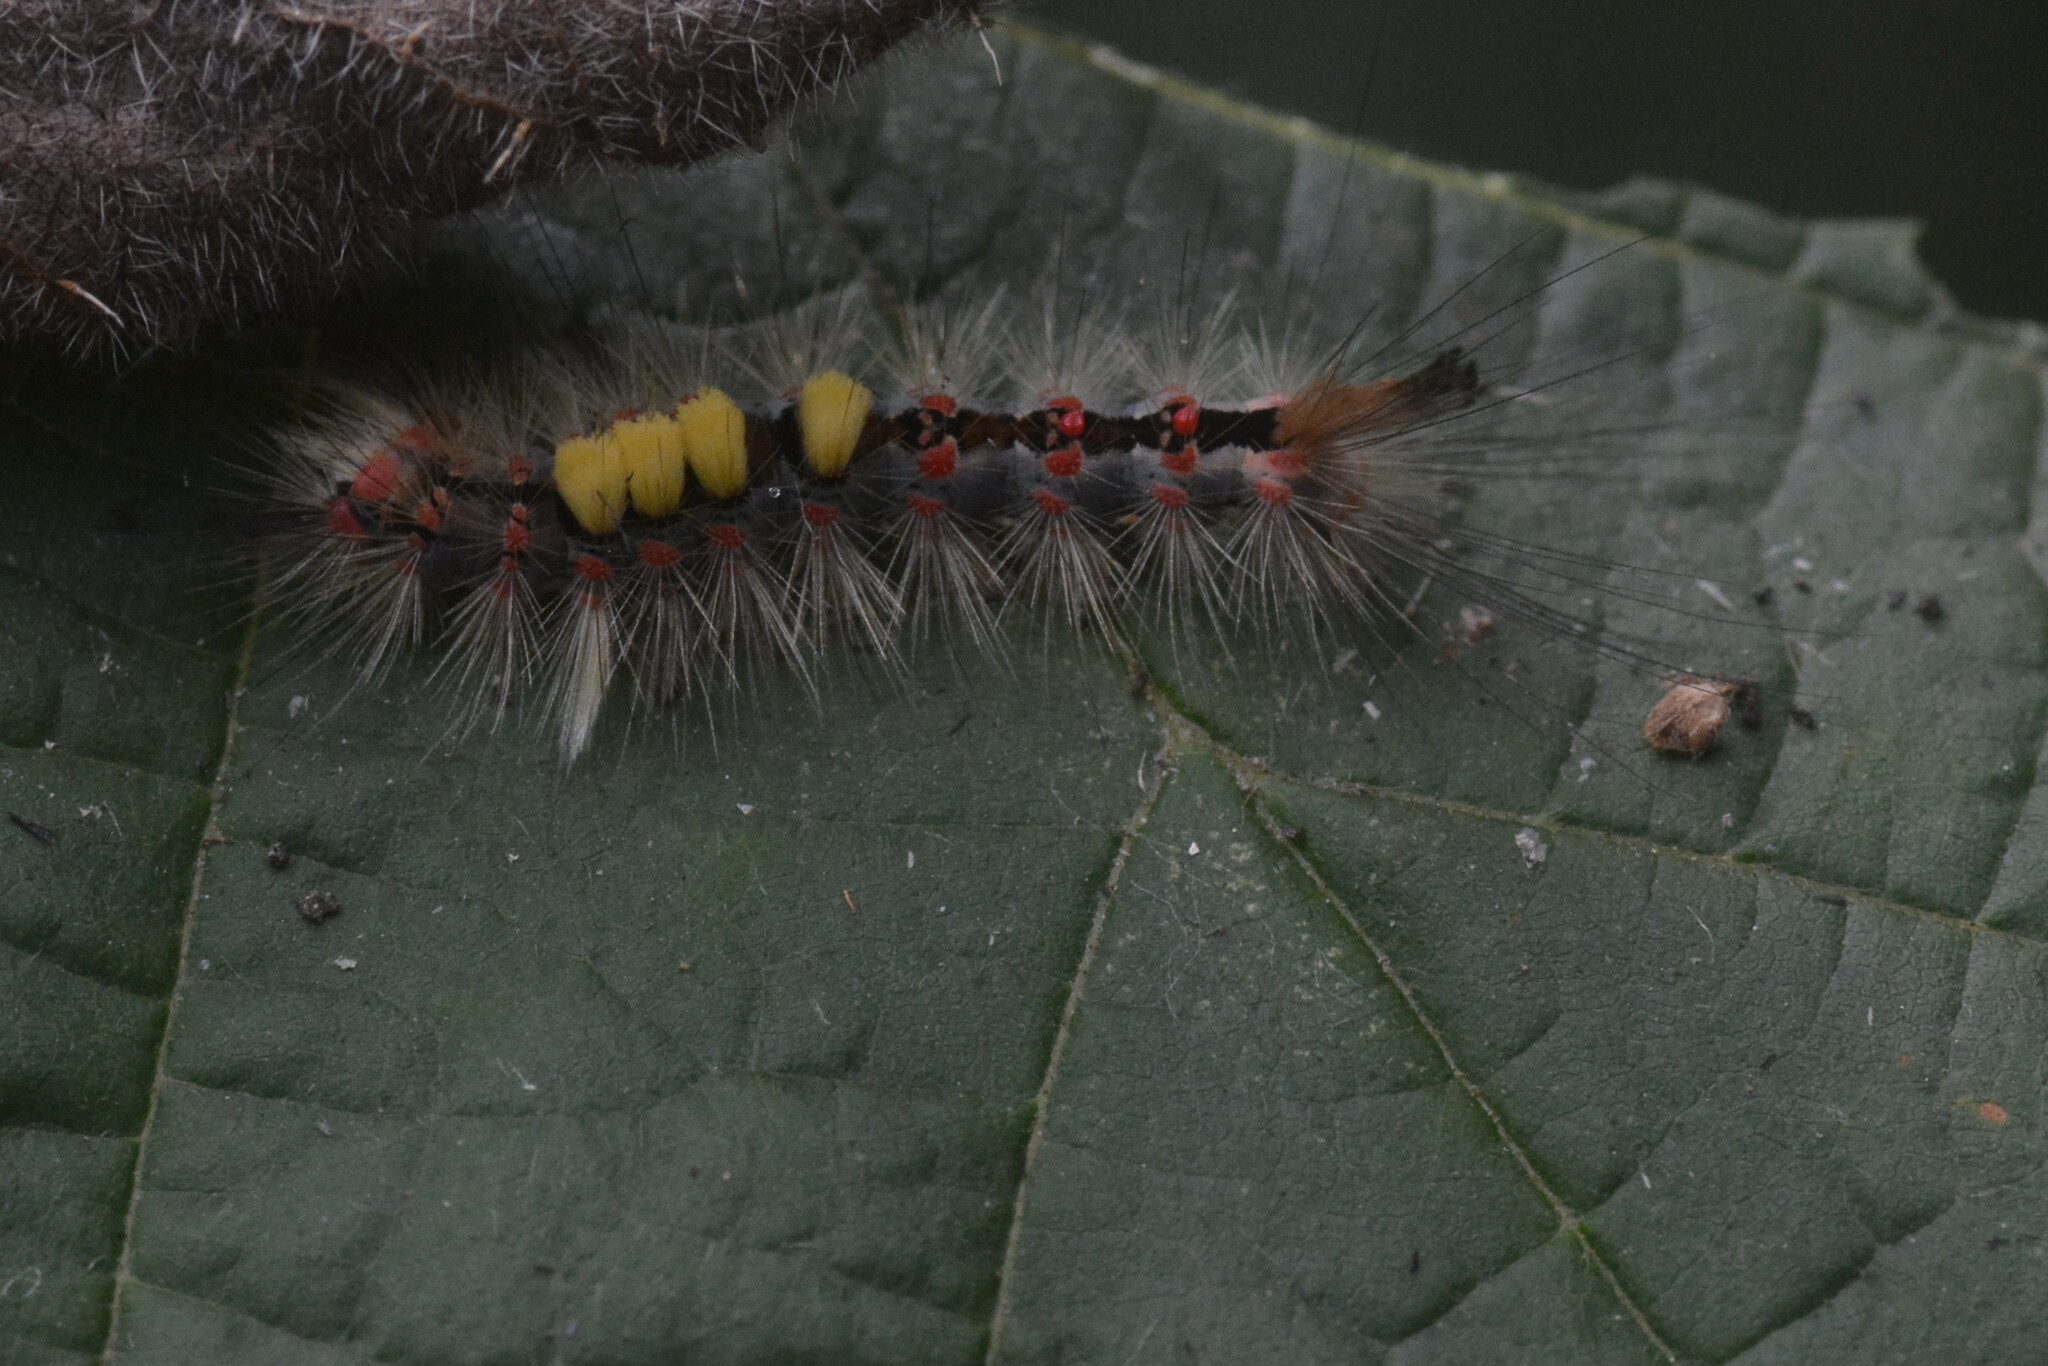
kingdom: Animalia
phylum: Arthropoda
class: Insecta
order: Lepidoptera
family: Erebidae
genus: Orgyia
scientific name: Orgyia antiqua
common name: Vapourer
